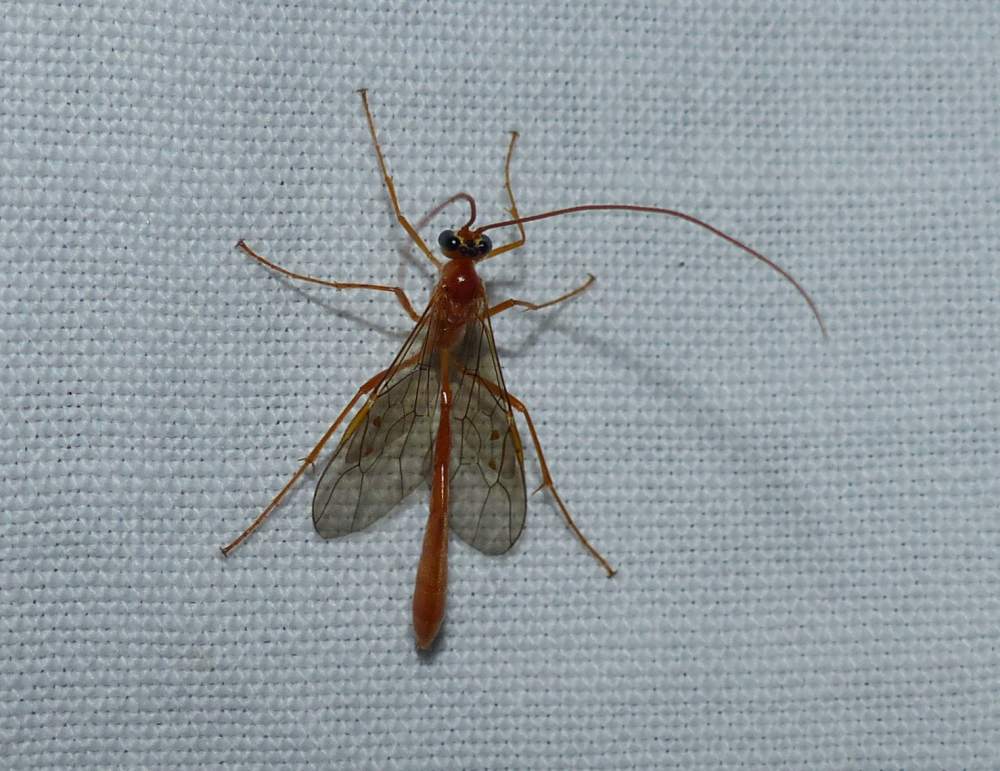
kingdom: Animalia
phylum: Arthropoda
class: Insecta
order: Hymenoptera
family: Ichneumonidae
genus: Enicospilus
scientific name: Enicospilus purgatus
